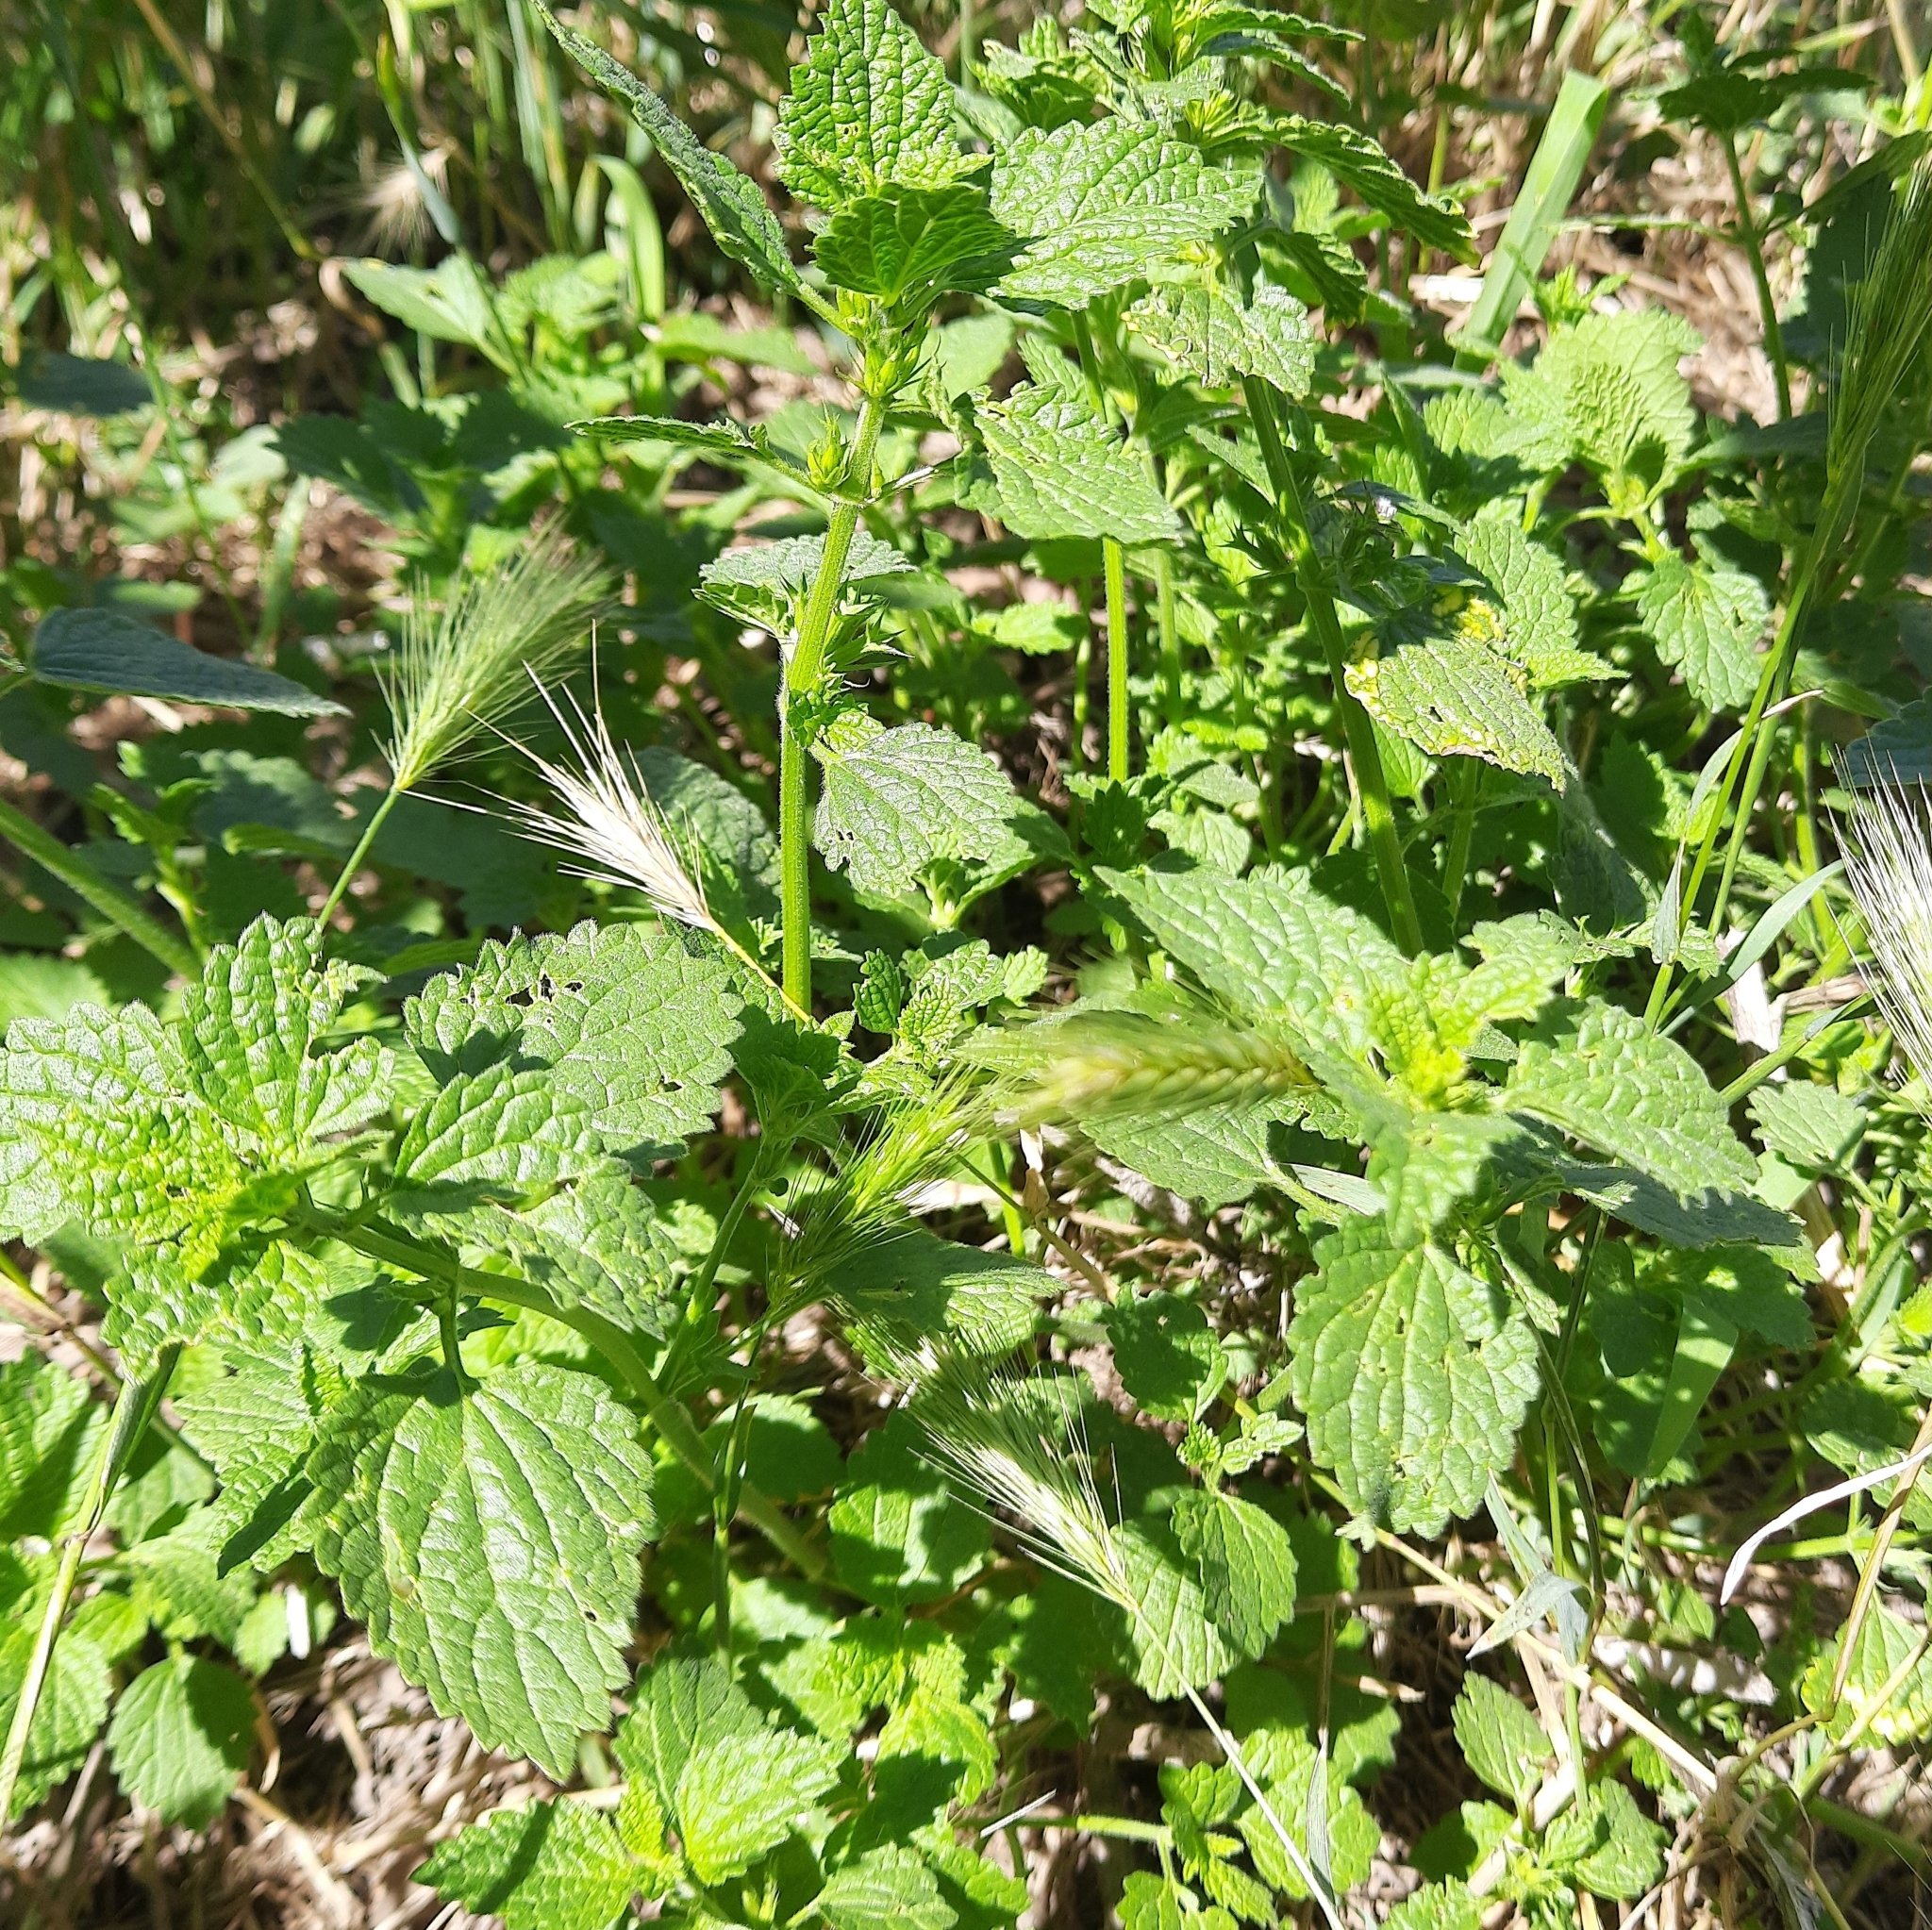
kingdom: Plantae
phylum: Tracheophyta
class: Magnoliopsida
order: Lamiales
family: Lamiaceae
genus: Ballota
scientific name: Ballota nigra
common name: Black horehound
